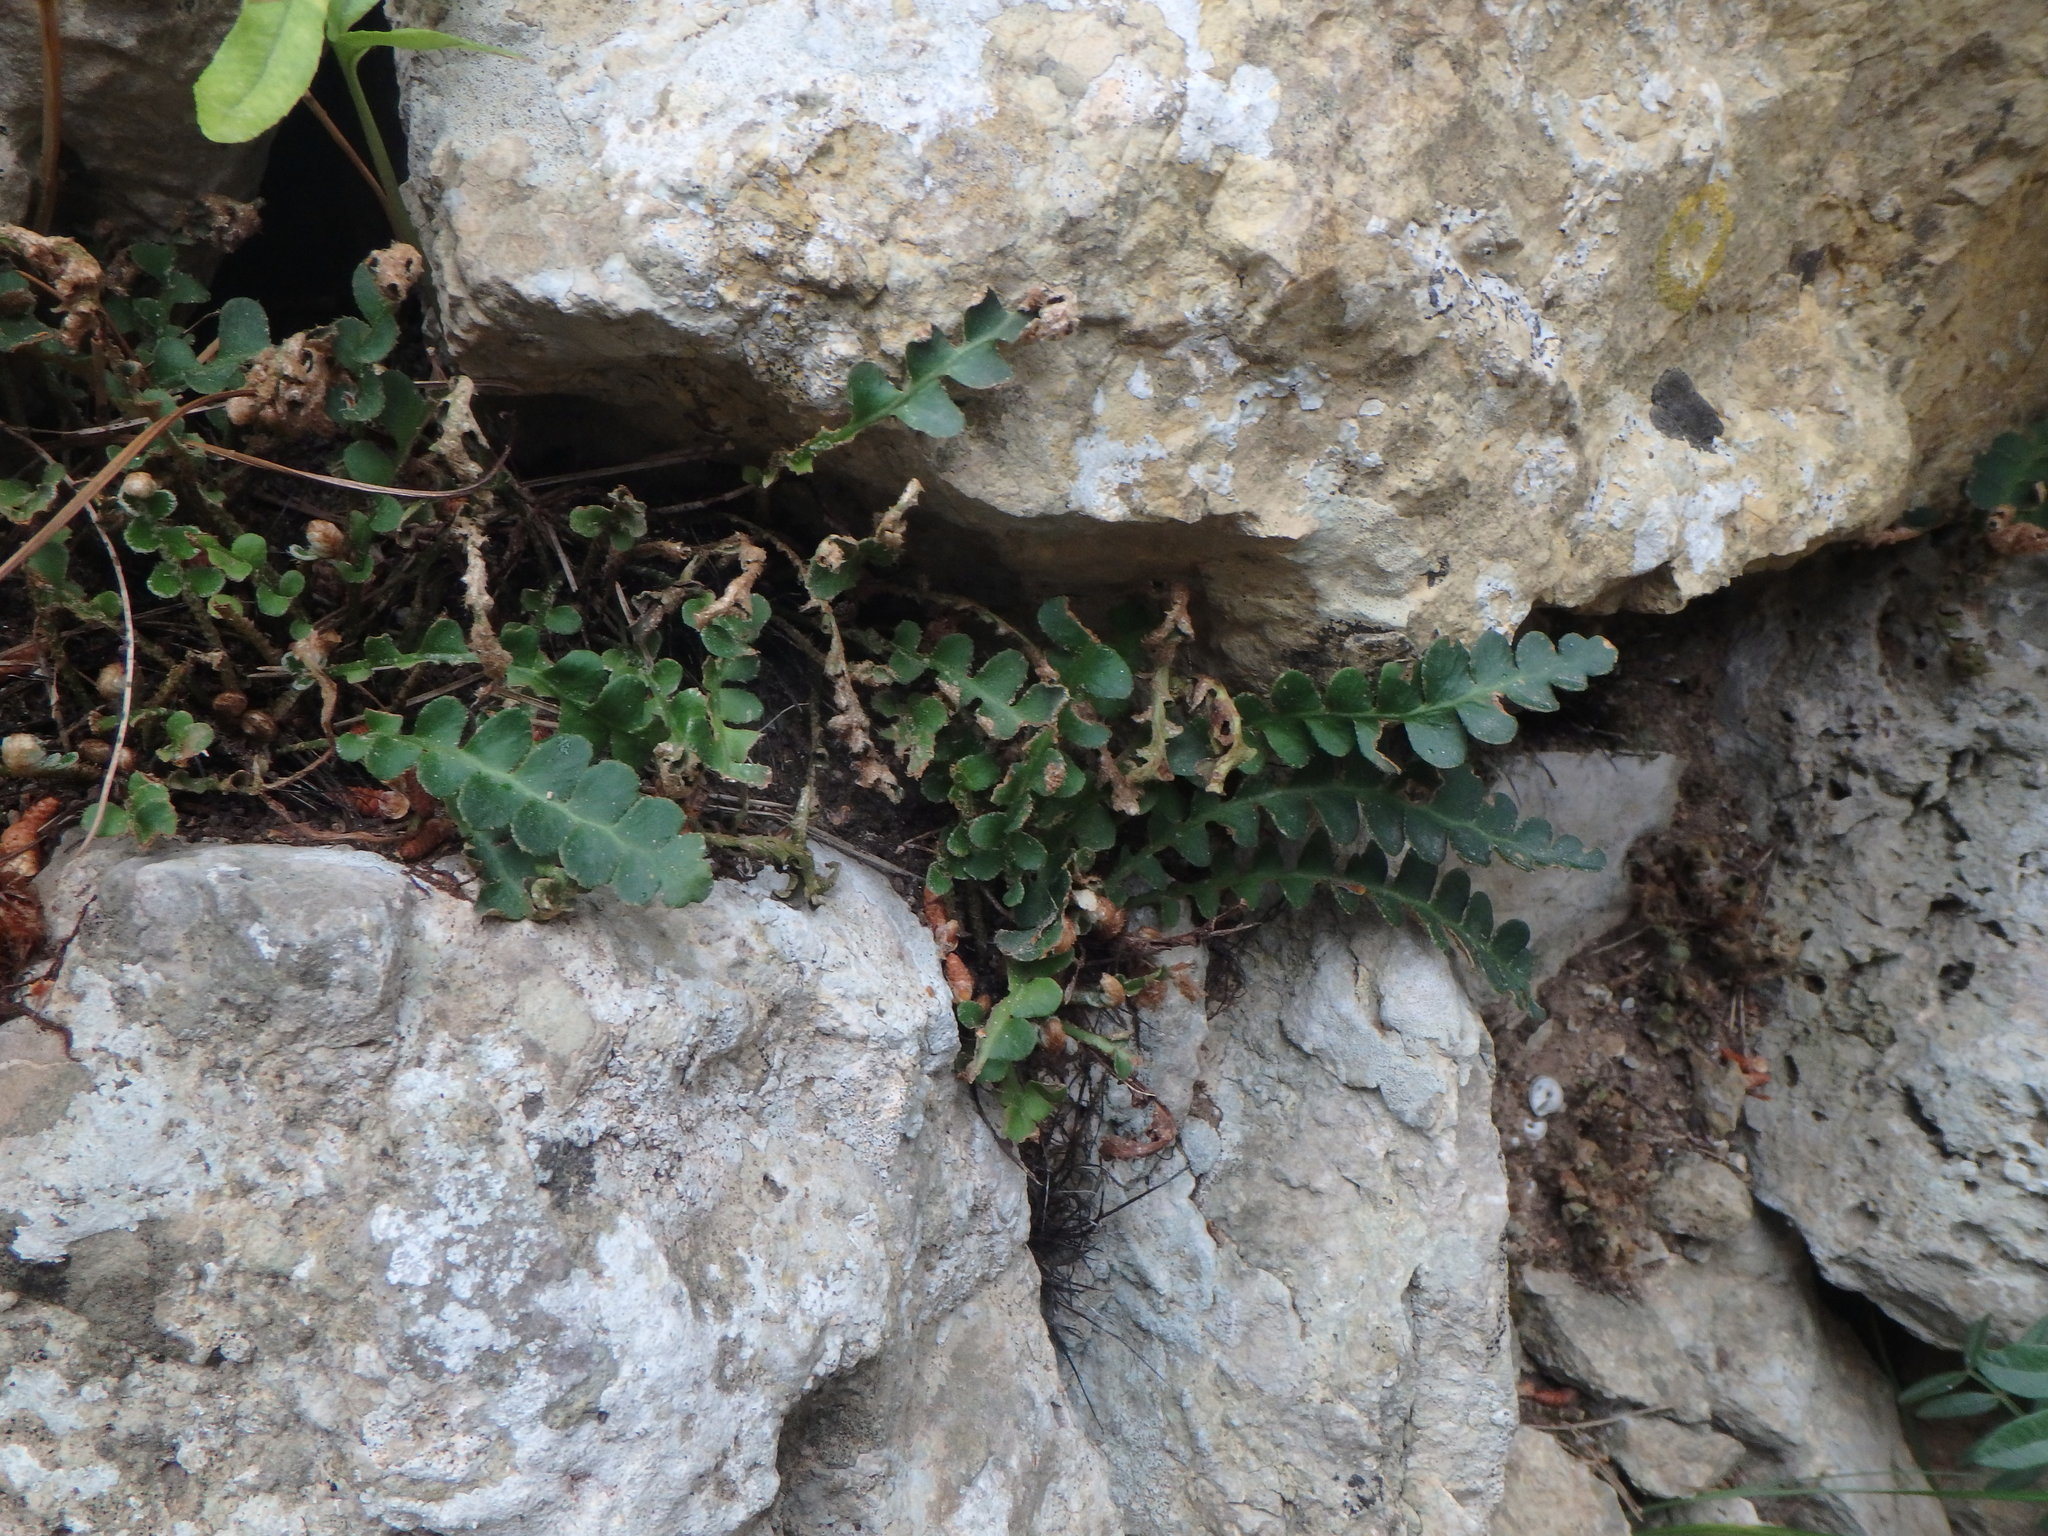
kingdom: Plantae
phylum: Tracheophyta
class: Polypodiopsida
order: Polypodiales
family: Aspleniaceae
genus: Asplenium
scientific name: Asplenium ceterach
